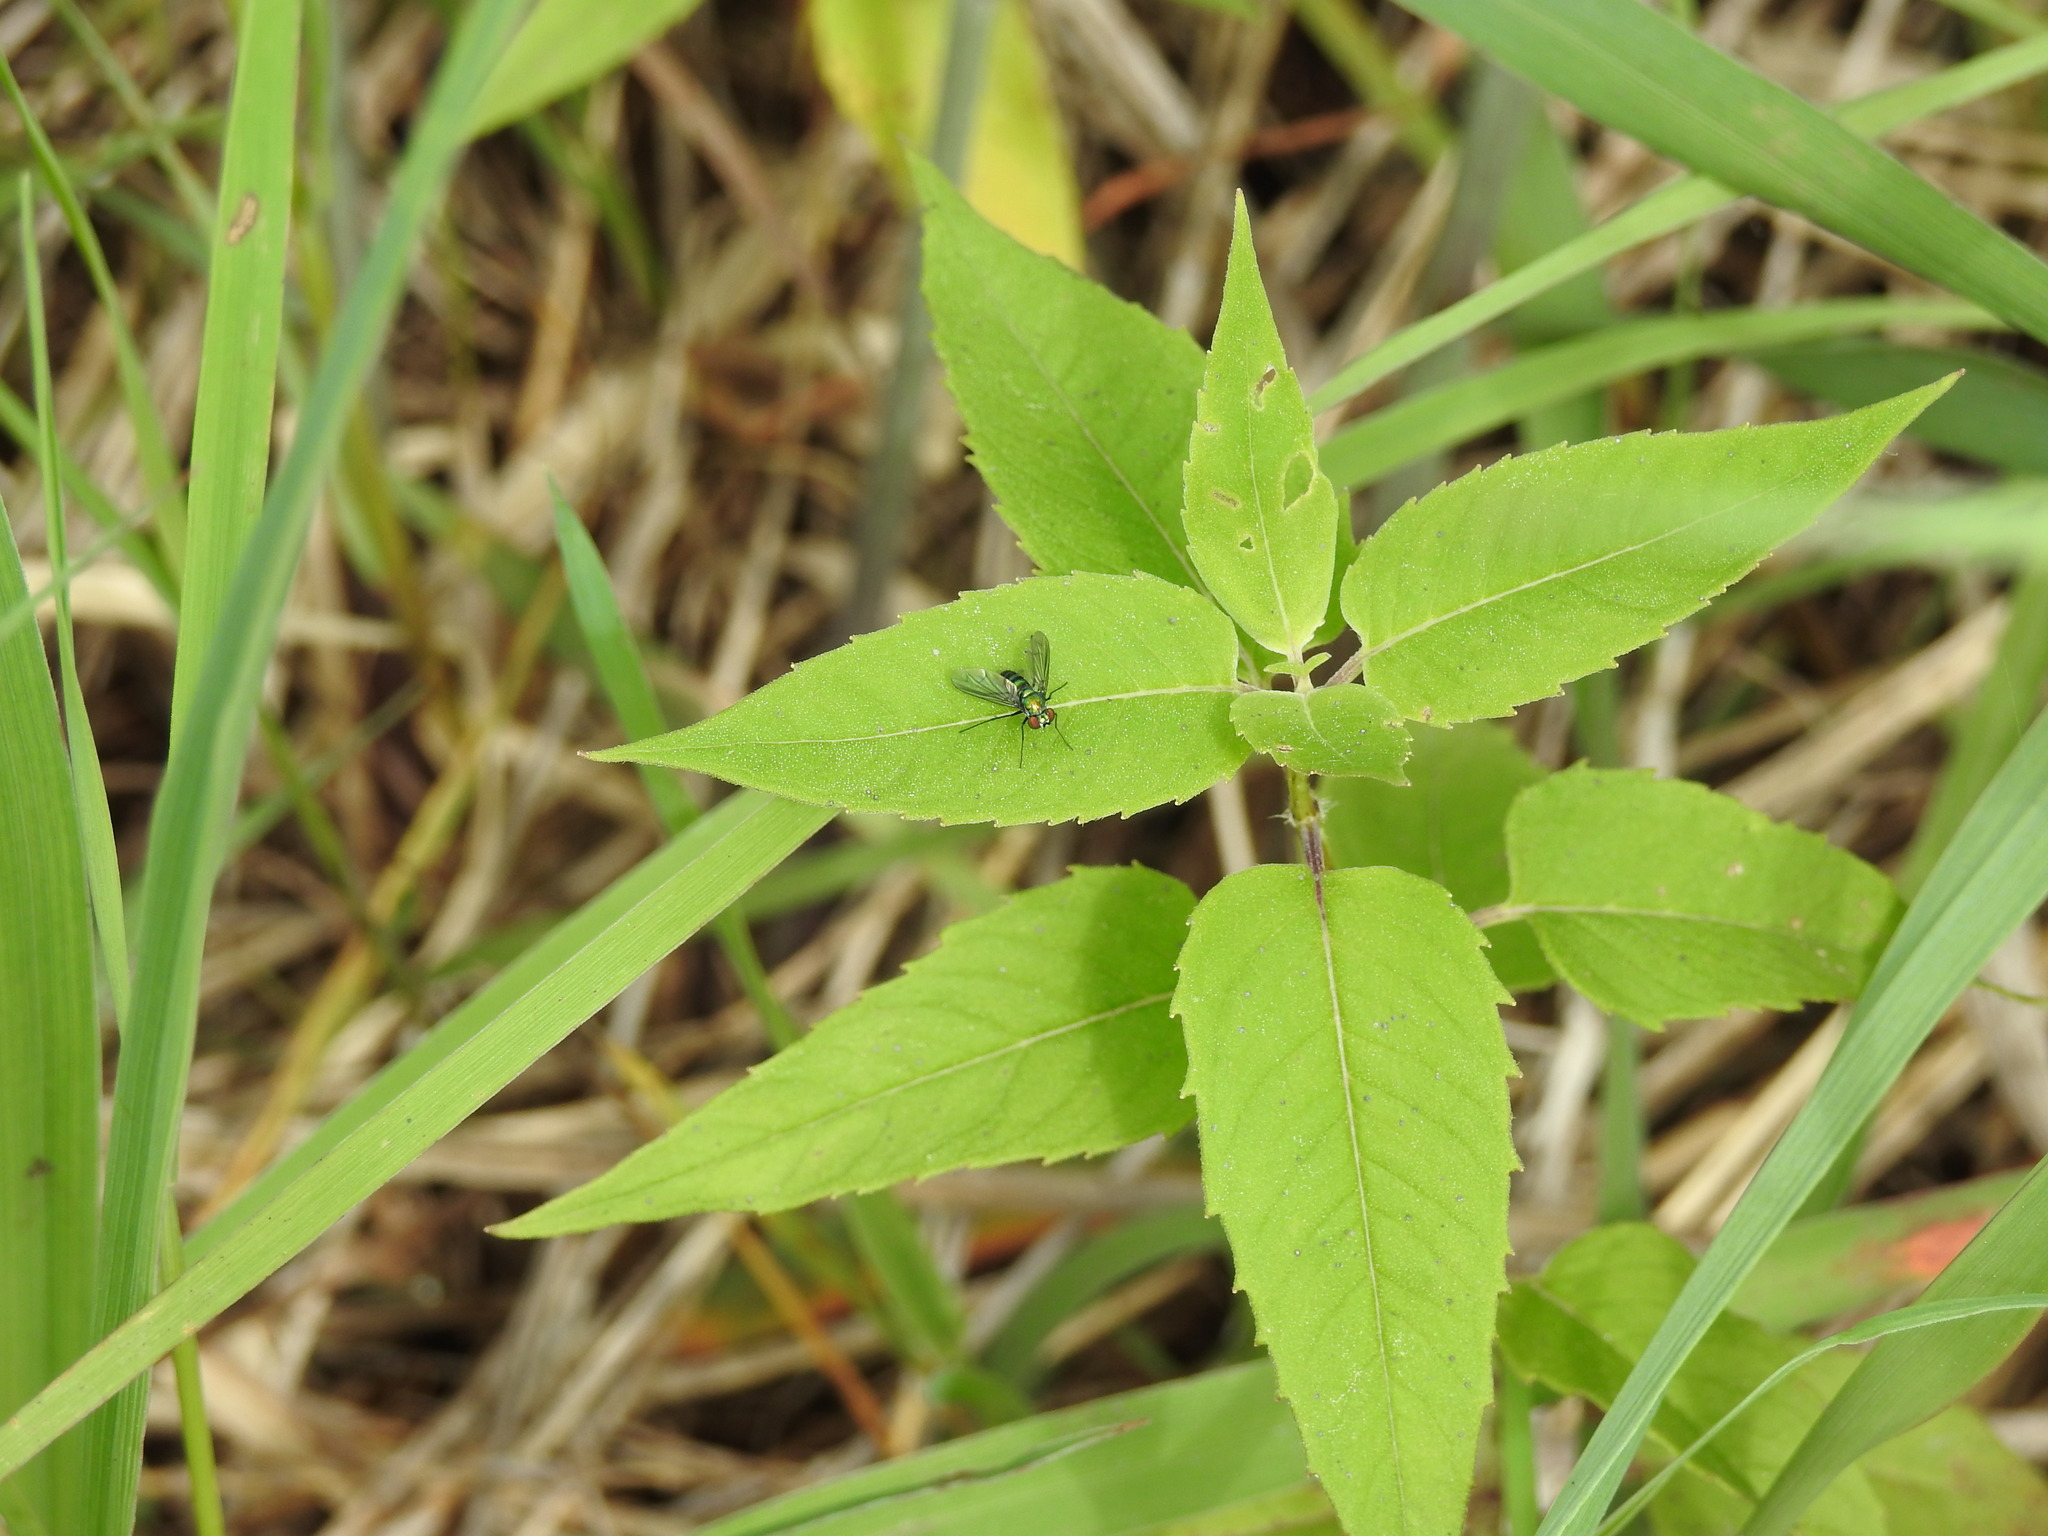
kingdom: Animalia
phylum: Arthropoda
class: Insecta
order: Diptera
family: Dolichopodidae
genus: Condylostylus
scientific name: Condylostylus patibulatus
